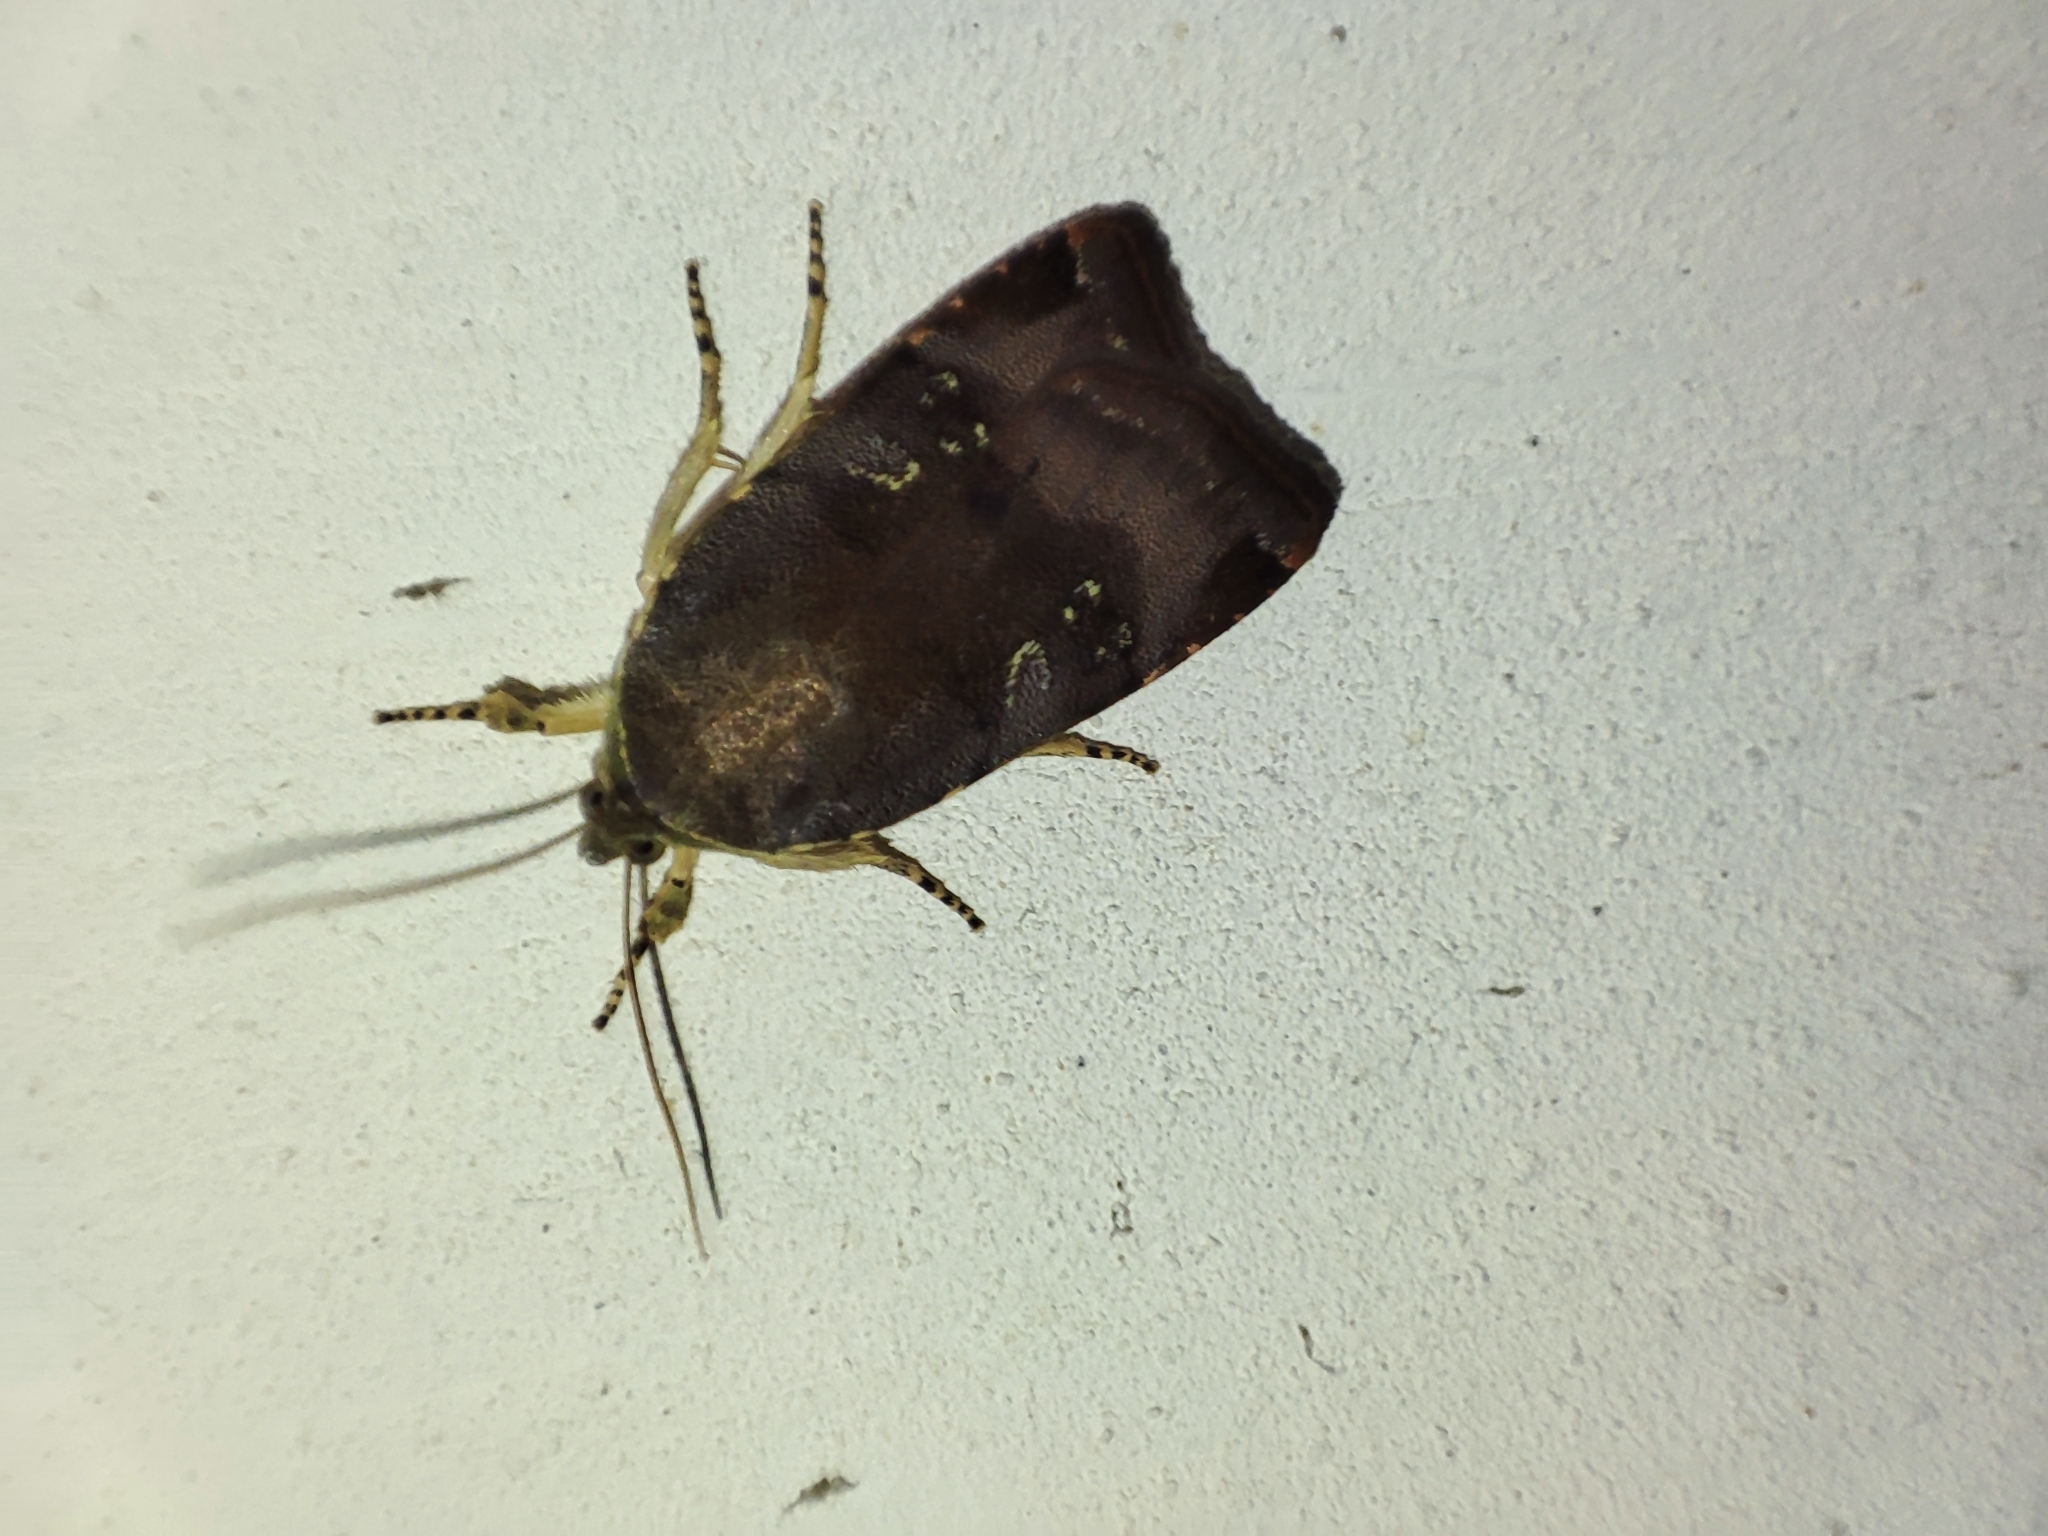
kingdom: Animalia
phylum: Arthropoda
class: Insecta
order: Lepidoptera
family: Noctuidae
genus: Noctua
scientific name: Noctua
